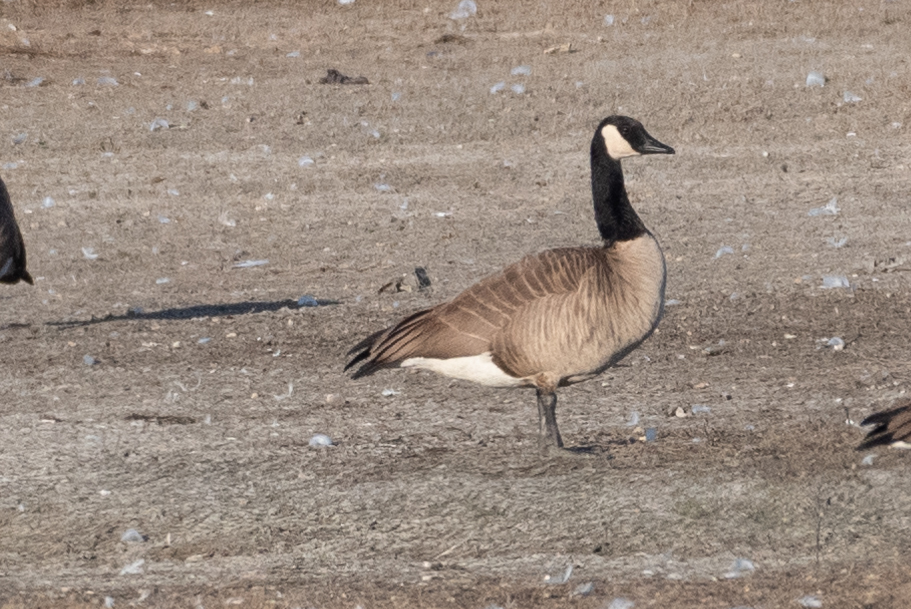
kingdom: Animalia
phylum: Chordata
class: Aves
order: Anseriformes
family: Anatidae
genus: Branta
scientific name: Branta canadensis
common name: Canada goose
